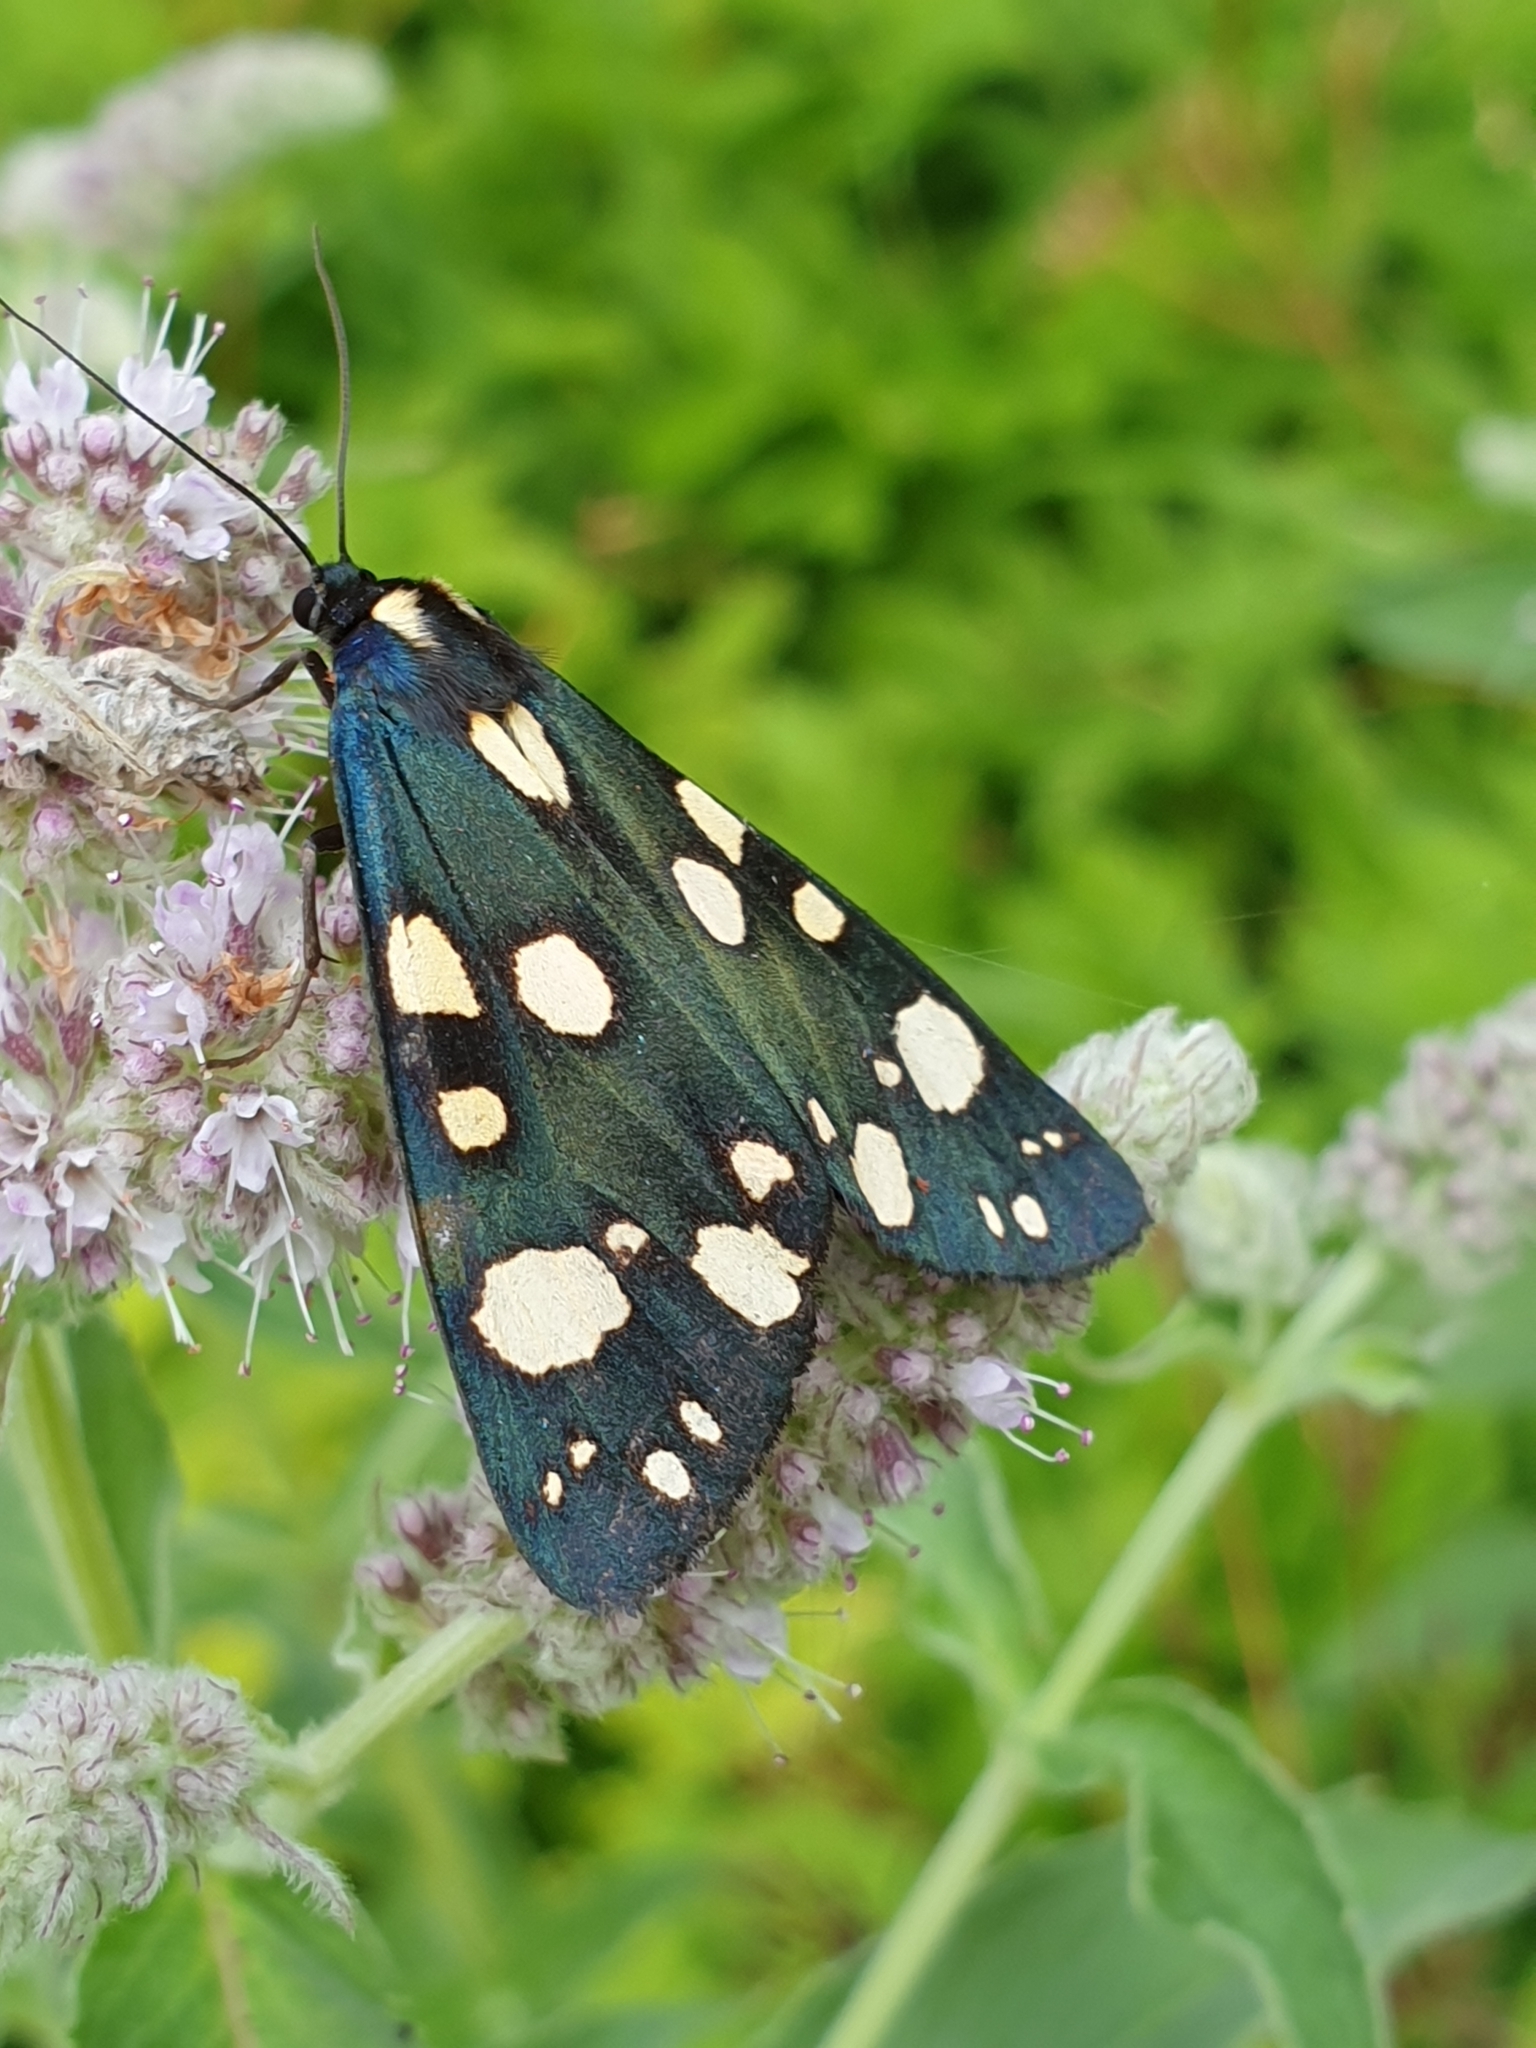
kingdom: Animalia
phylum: Arthropoda
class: Insecta
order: Lepidoptera
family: Erebidae
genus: Callimorpha
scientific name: Callimorpha dominula
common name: Scarlet tiger
